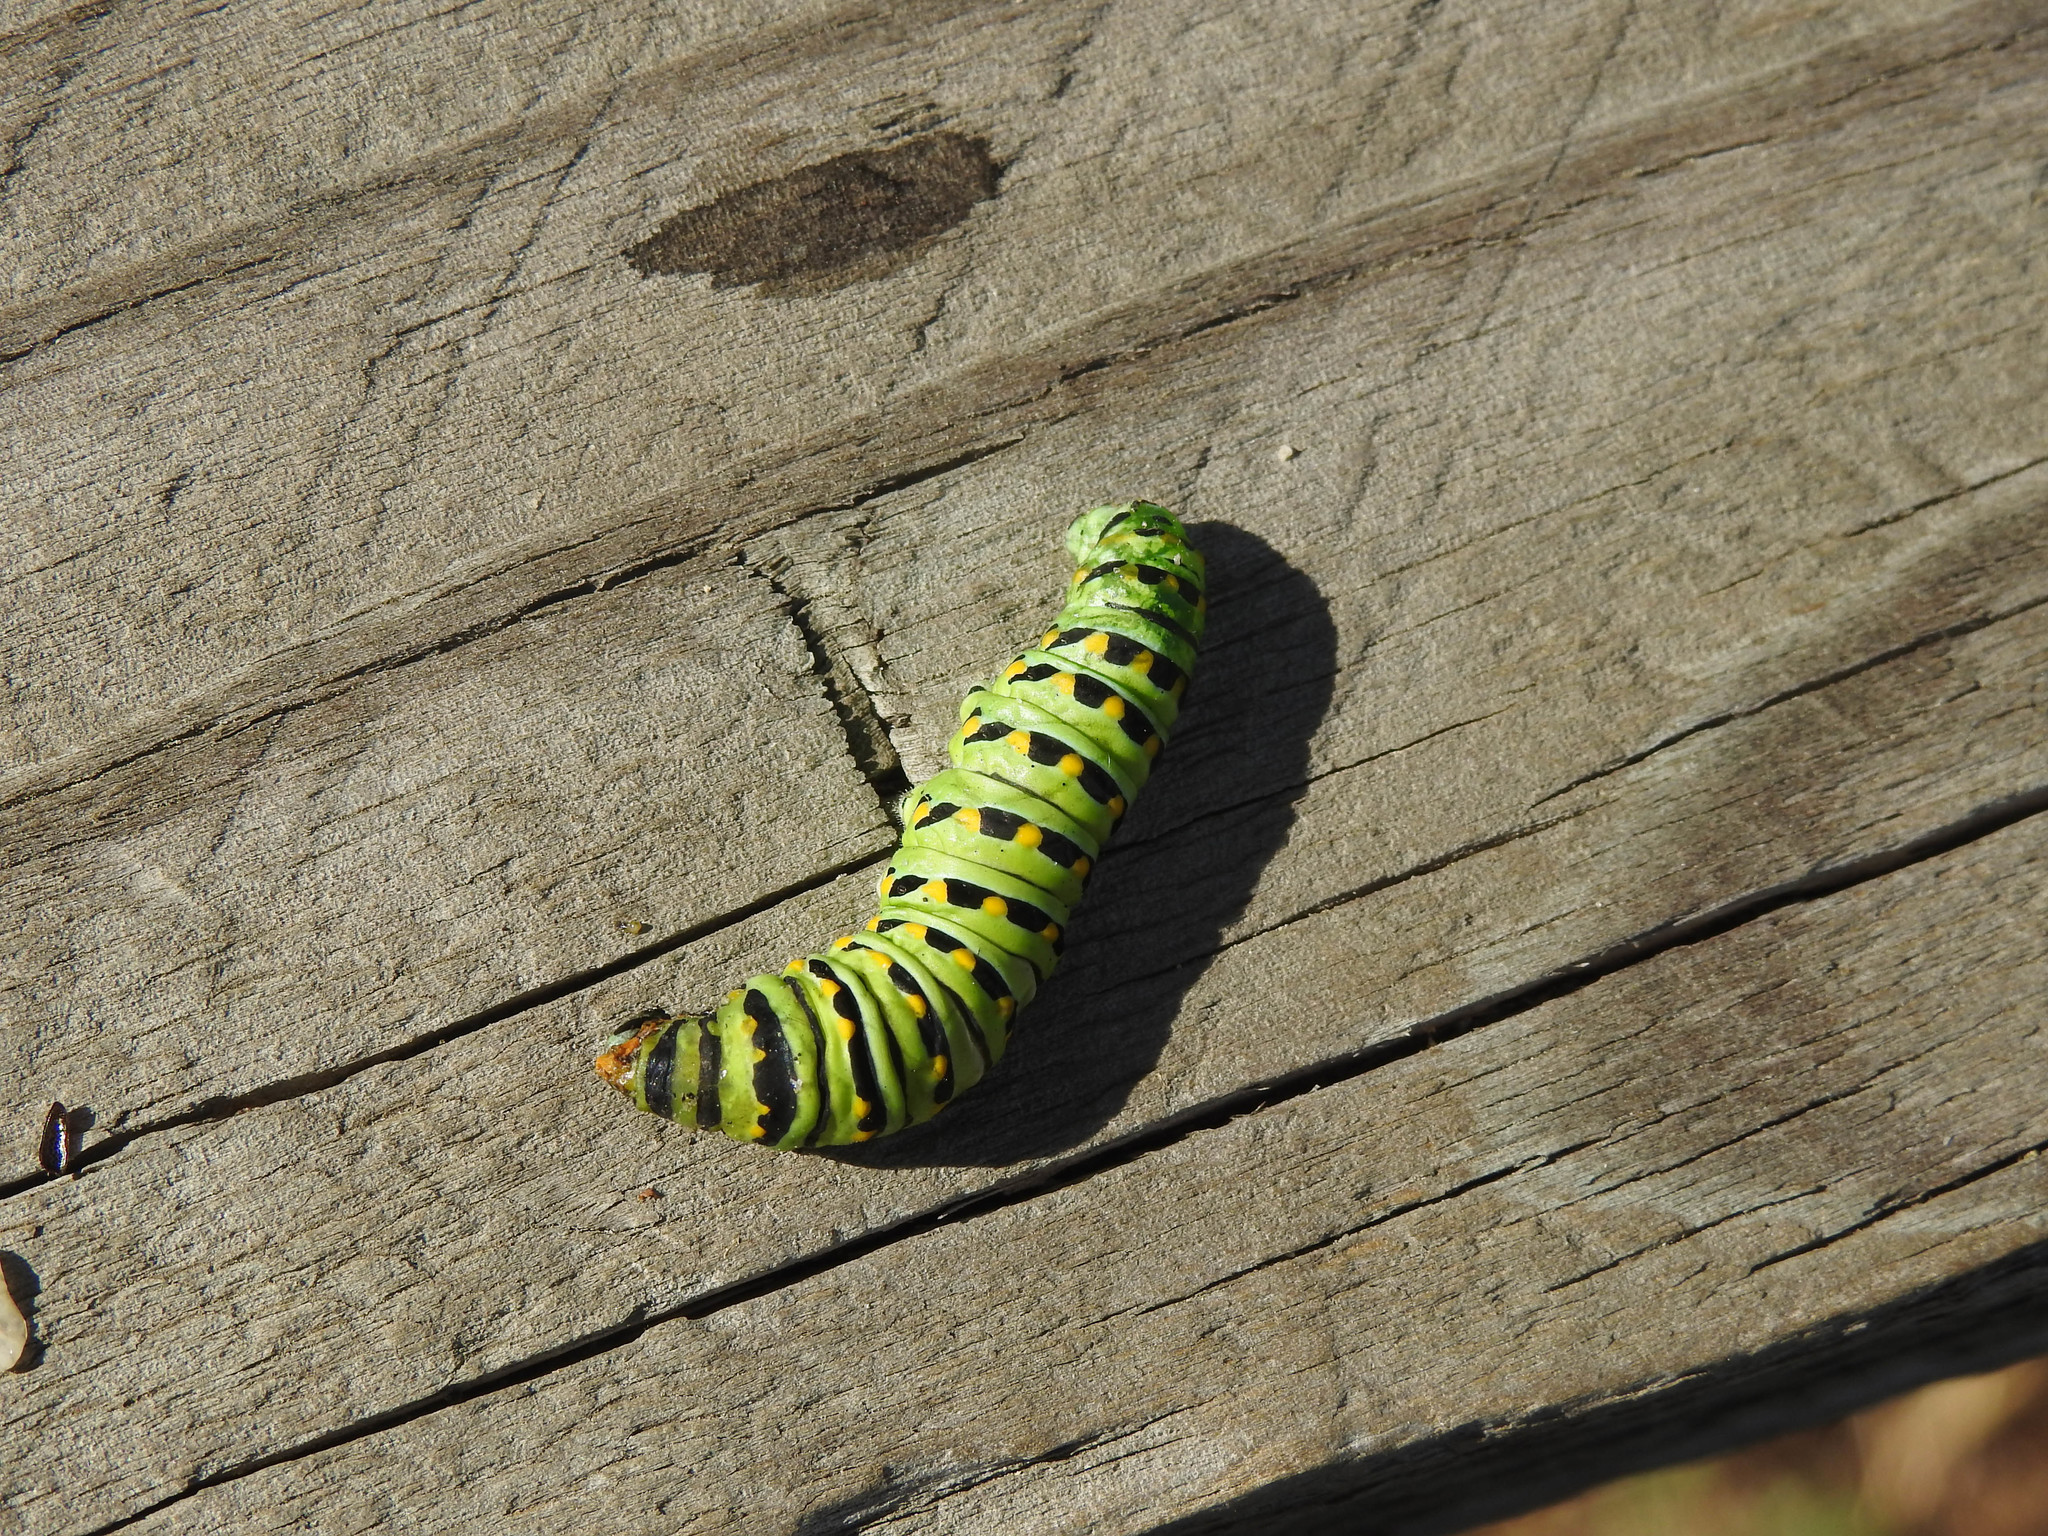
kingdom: Animalia
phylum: Arthropoda
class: Insecta
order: Lepidoptera
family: Papilionidae
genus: Papilio
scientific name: Papilio polyxenes
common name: Black swallowtail
